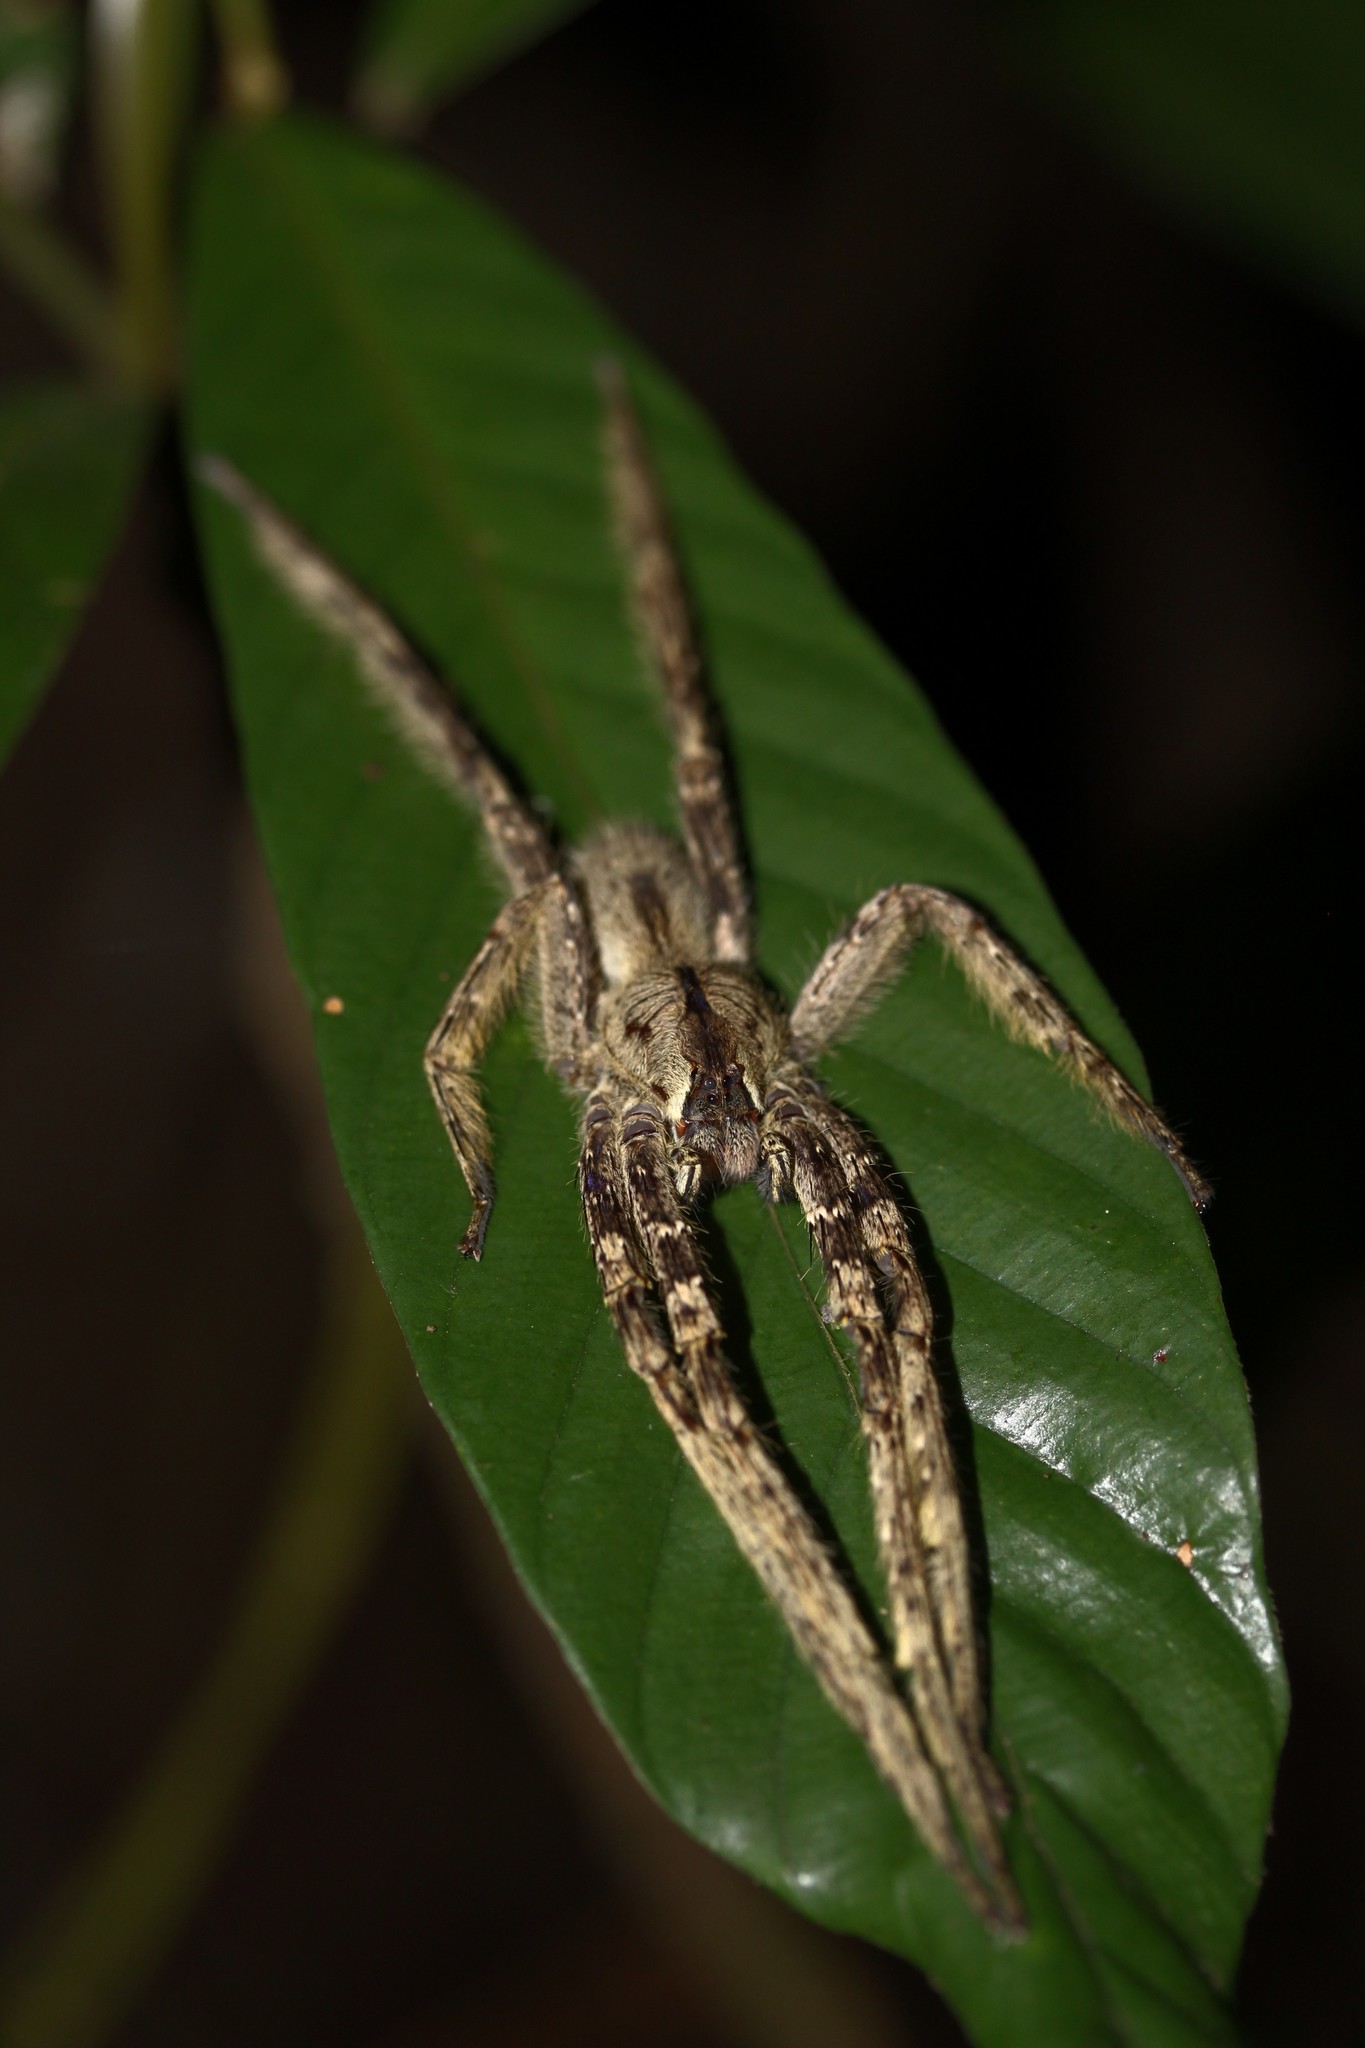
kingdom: Animalia
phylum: Arthropoda
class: Arachnida
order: Araneae
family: Ctenidae
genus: Phoneutria
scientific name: Phoneutria boliviensis
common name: Wandering spiders
